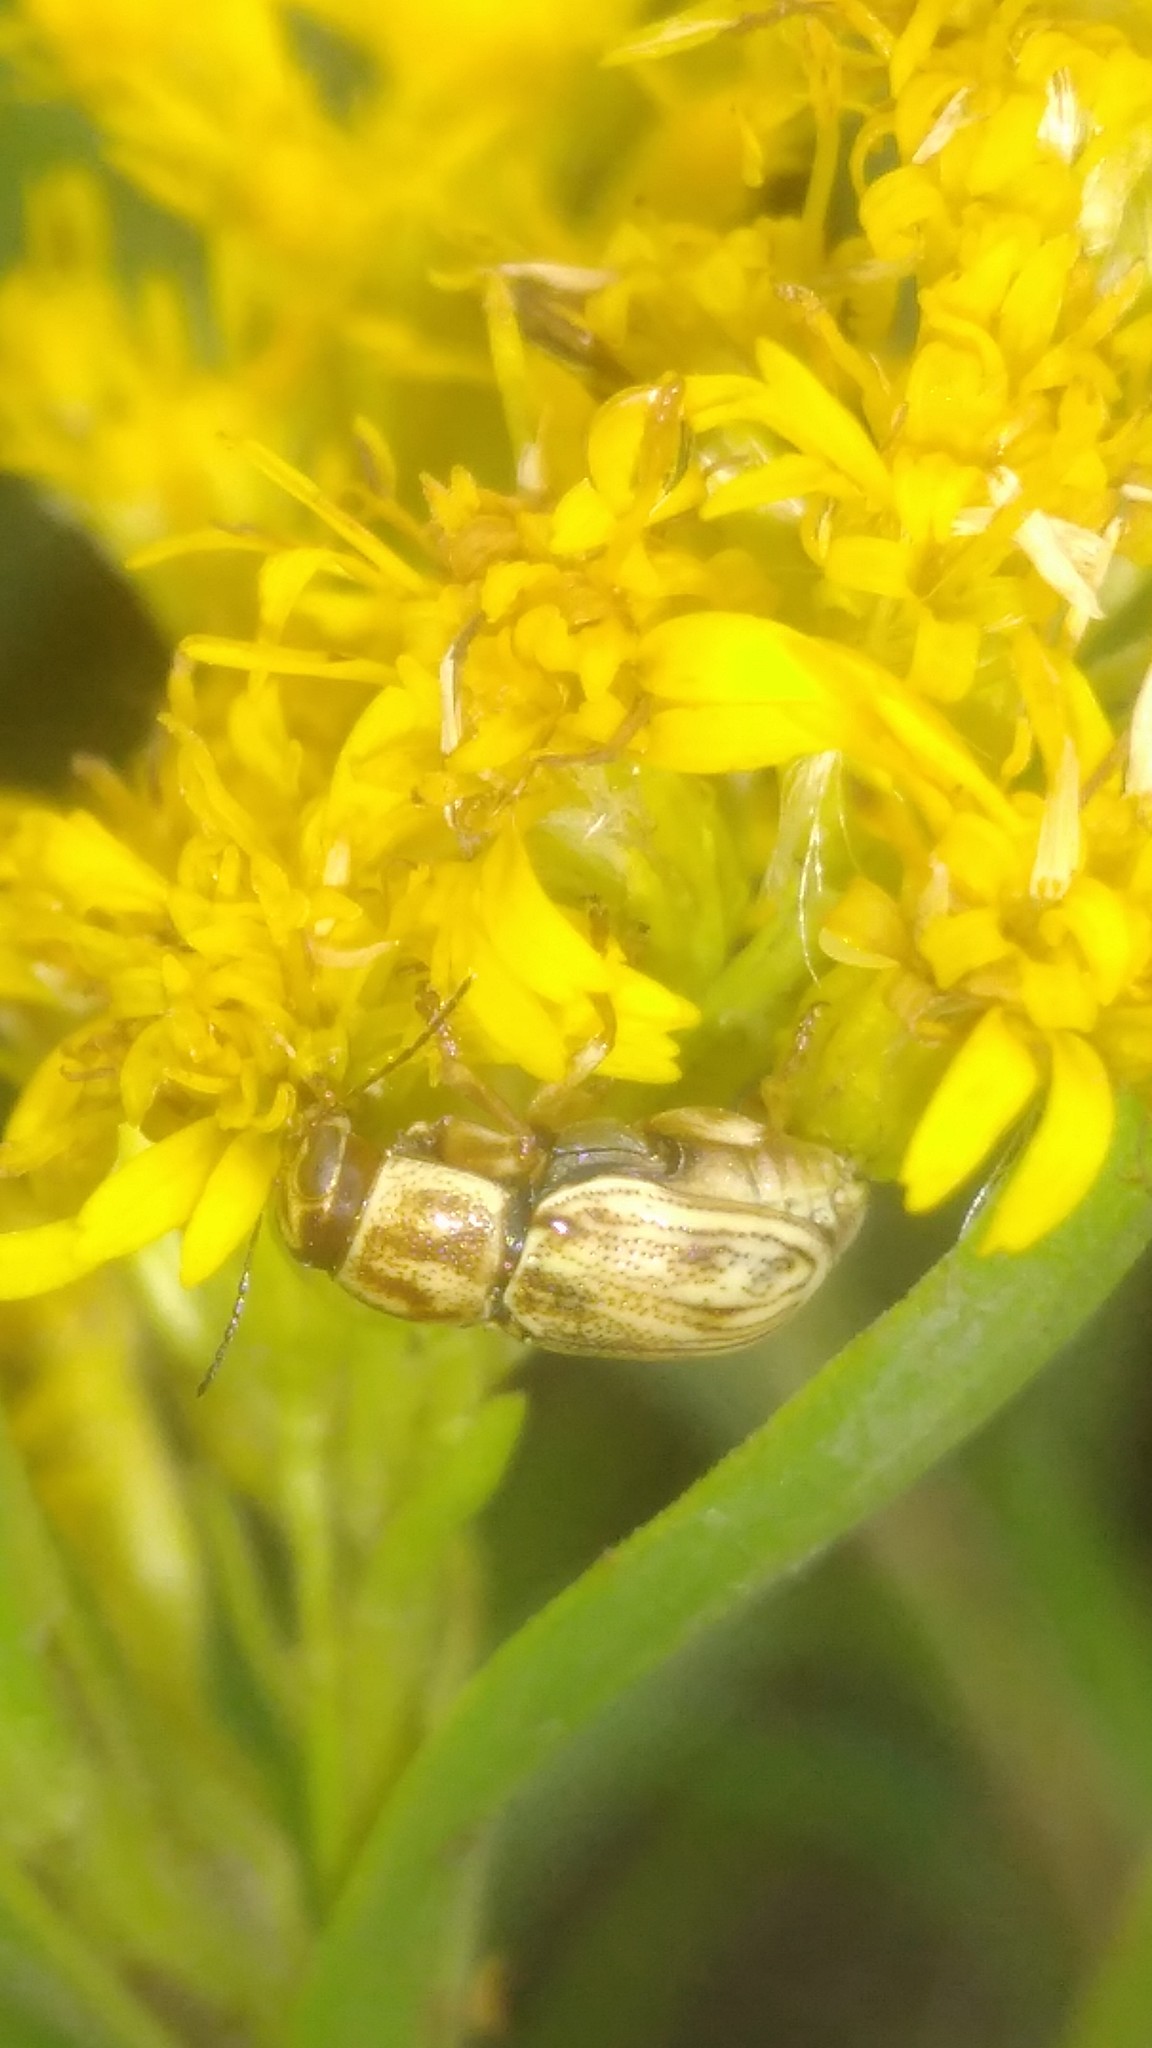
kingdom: Animalia
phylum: Arthropoda
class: Insecta
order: Coleoptera
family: Chrysomelidae
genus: Pachybrachis
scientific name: Pachybrachis
